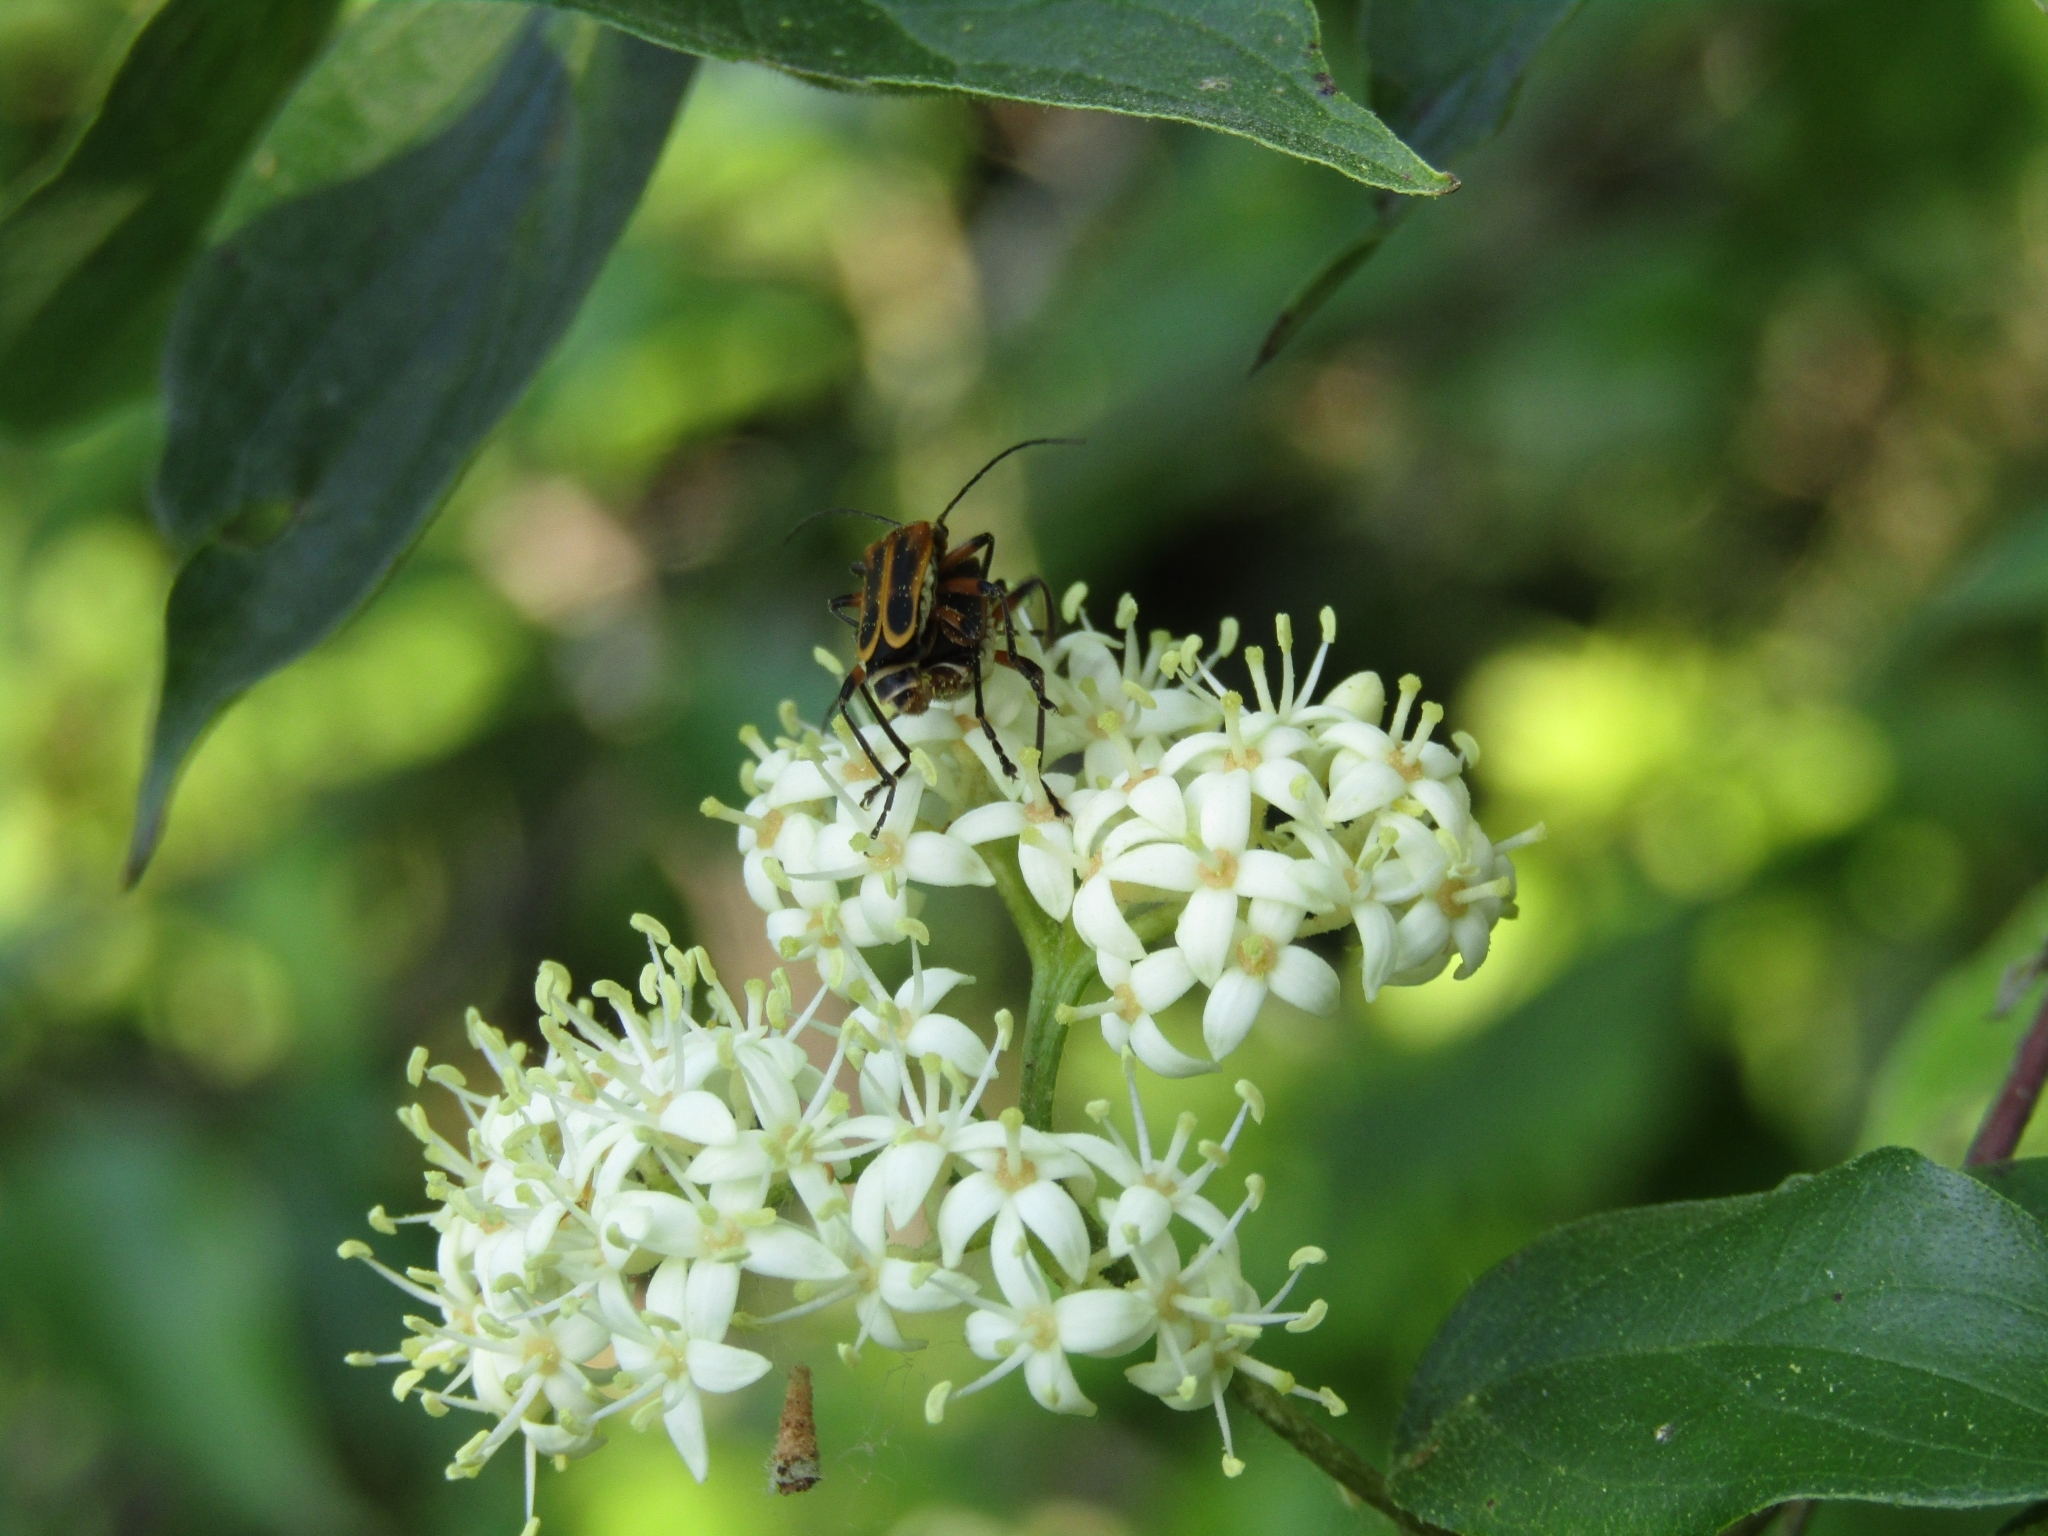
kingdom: Animalia
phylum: Arthropoda
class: Insecta
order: Coleoptera
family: Cantharidae
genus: Chauliognathus
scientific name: Chauliognathus marginatus
